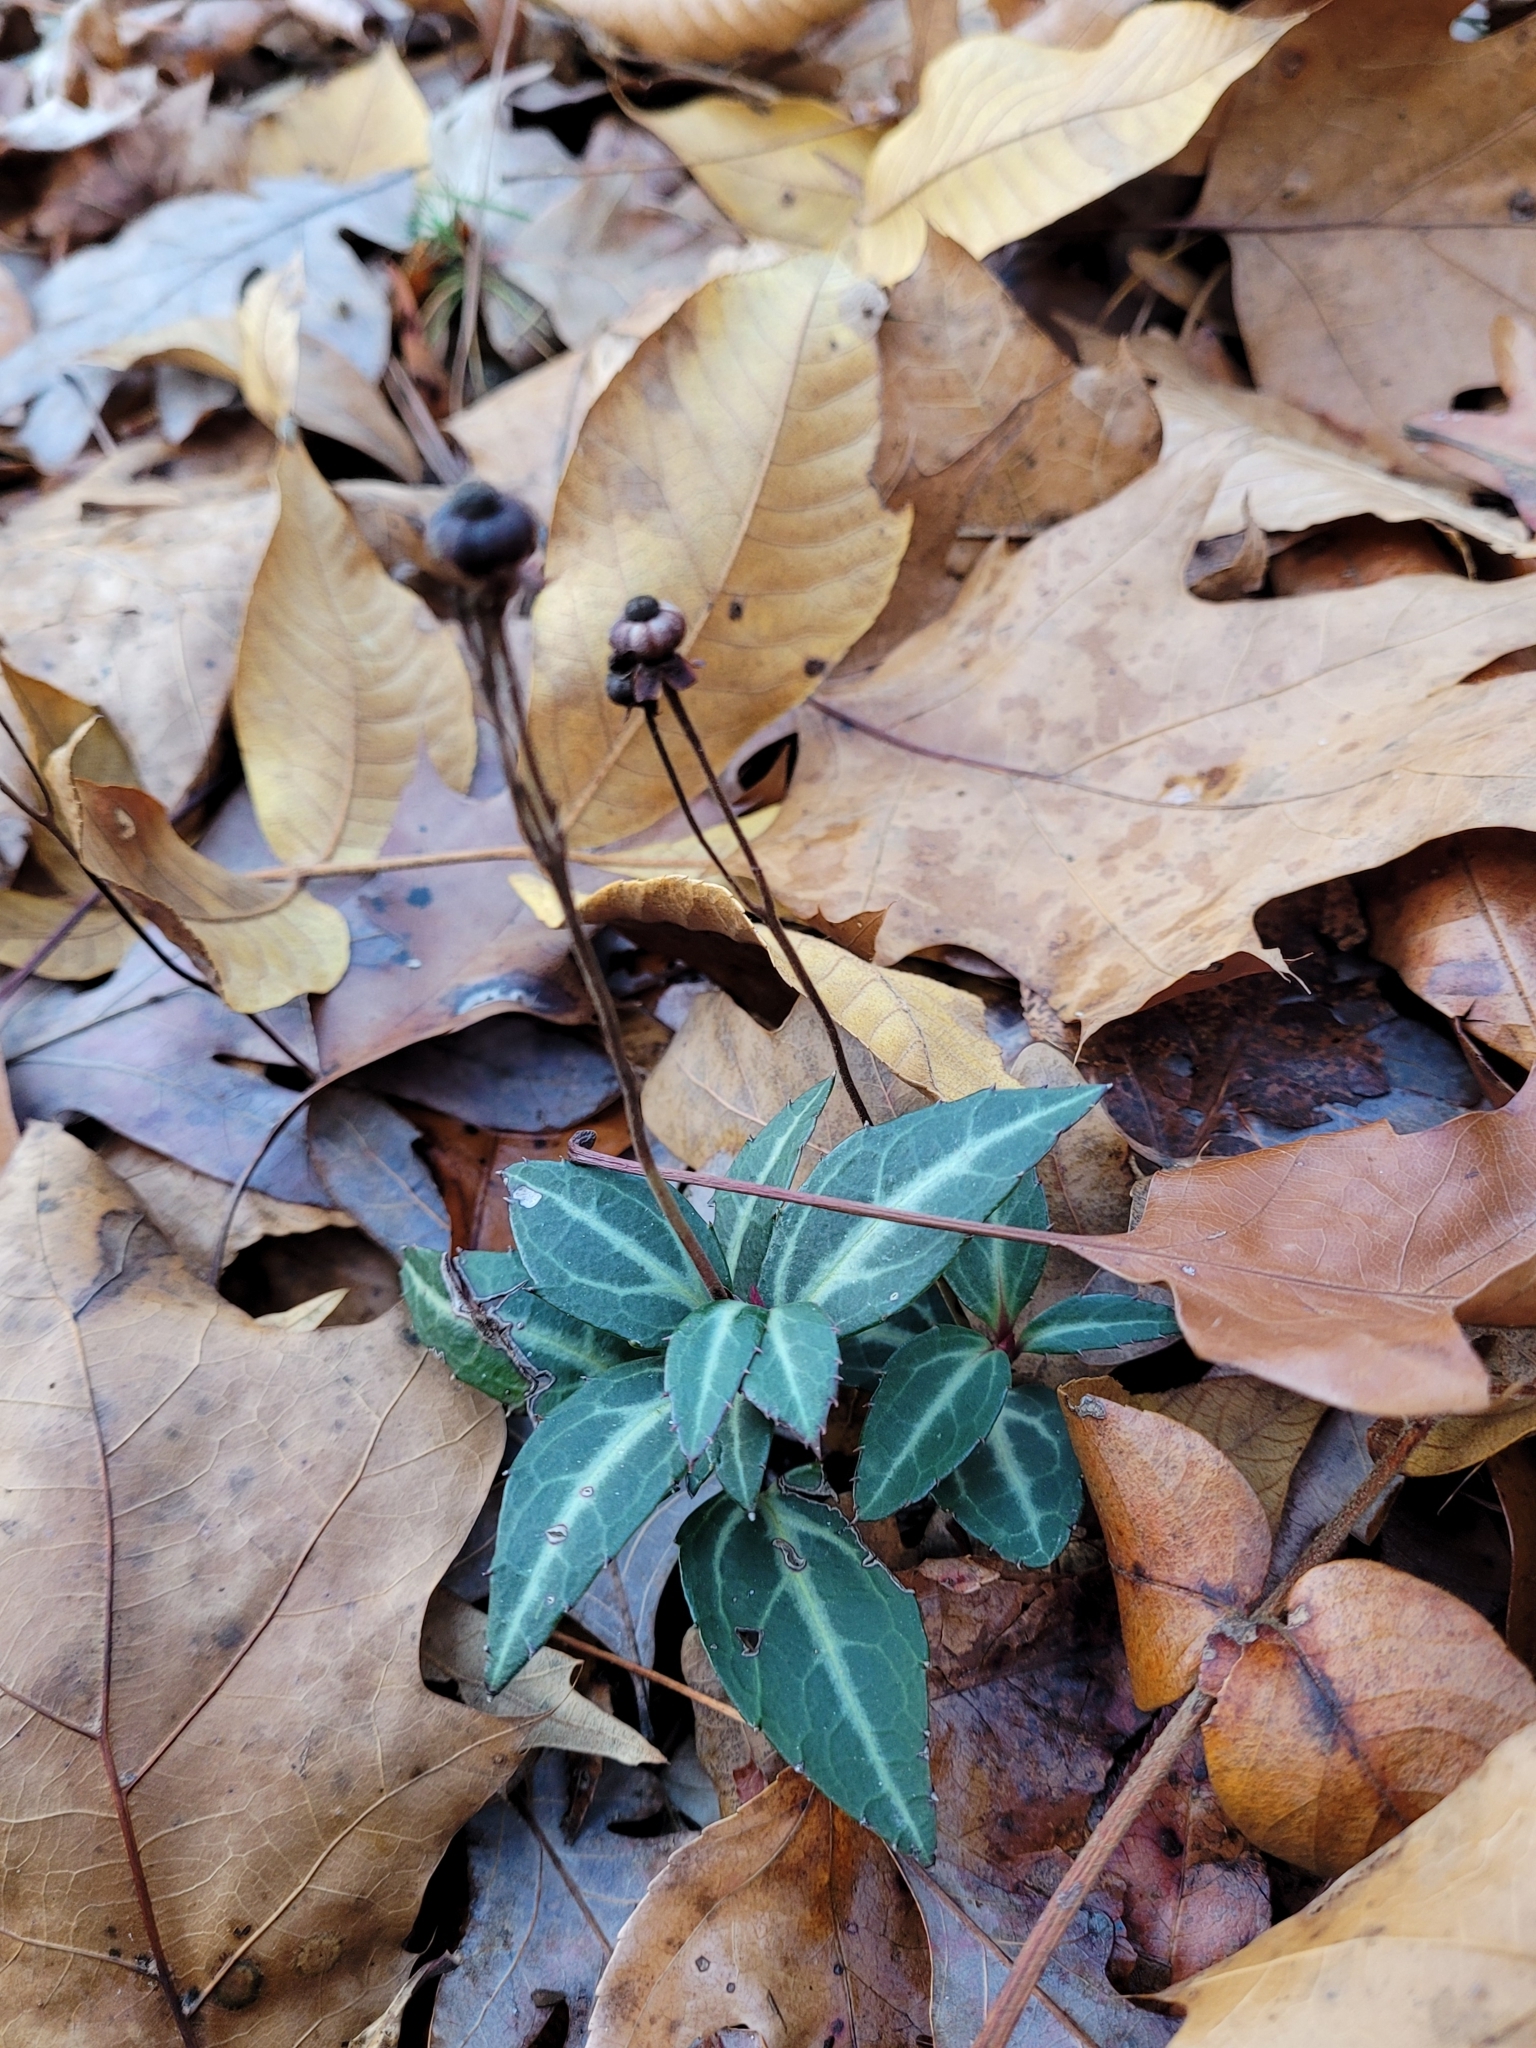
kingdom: Plantae
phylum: Tracheophyta
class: Magnoliopsida
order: Ericales
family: Ericaceae
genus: Chimaphila
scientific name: Chimaphila maculata
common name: Spotted pipsissewa
